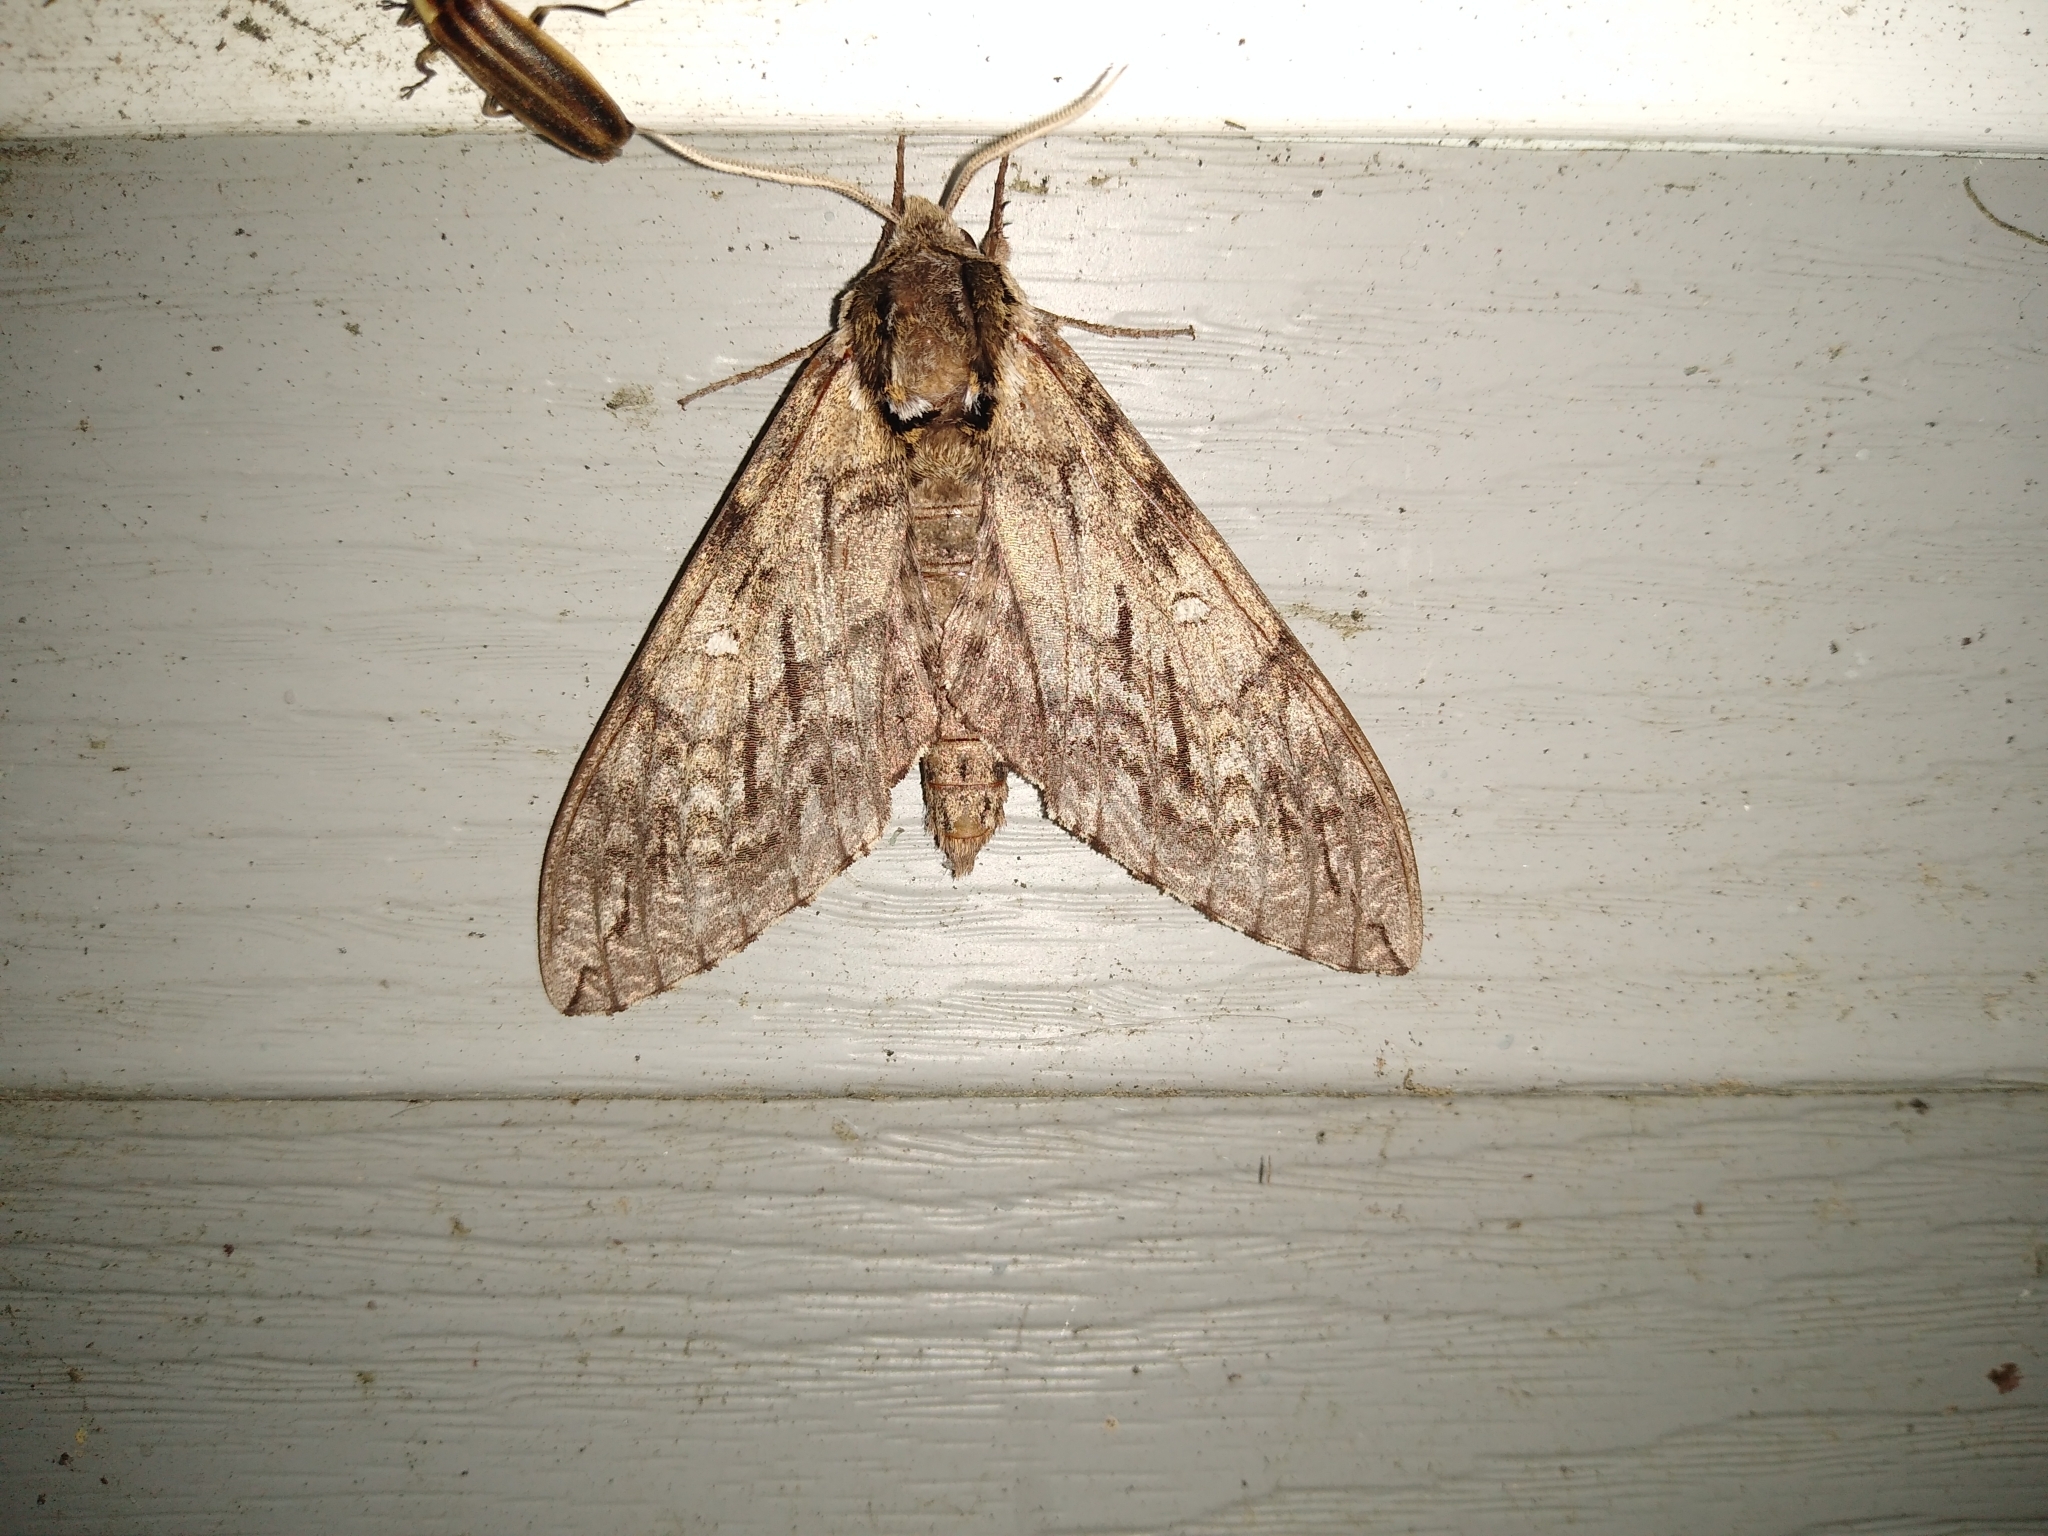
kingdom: Animalia
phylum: Arthropoda
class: Insecta
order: Lepidoptera
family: Sphingidae
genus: Ceratomia
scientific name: Ceratomia undulosa
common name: Waved sphinx
